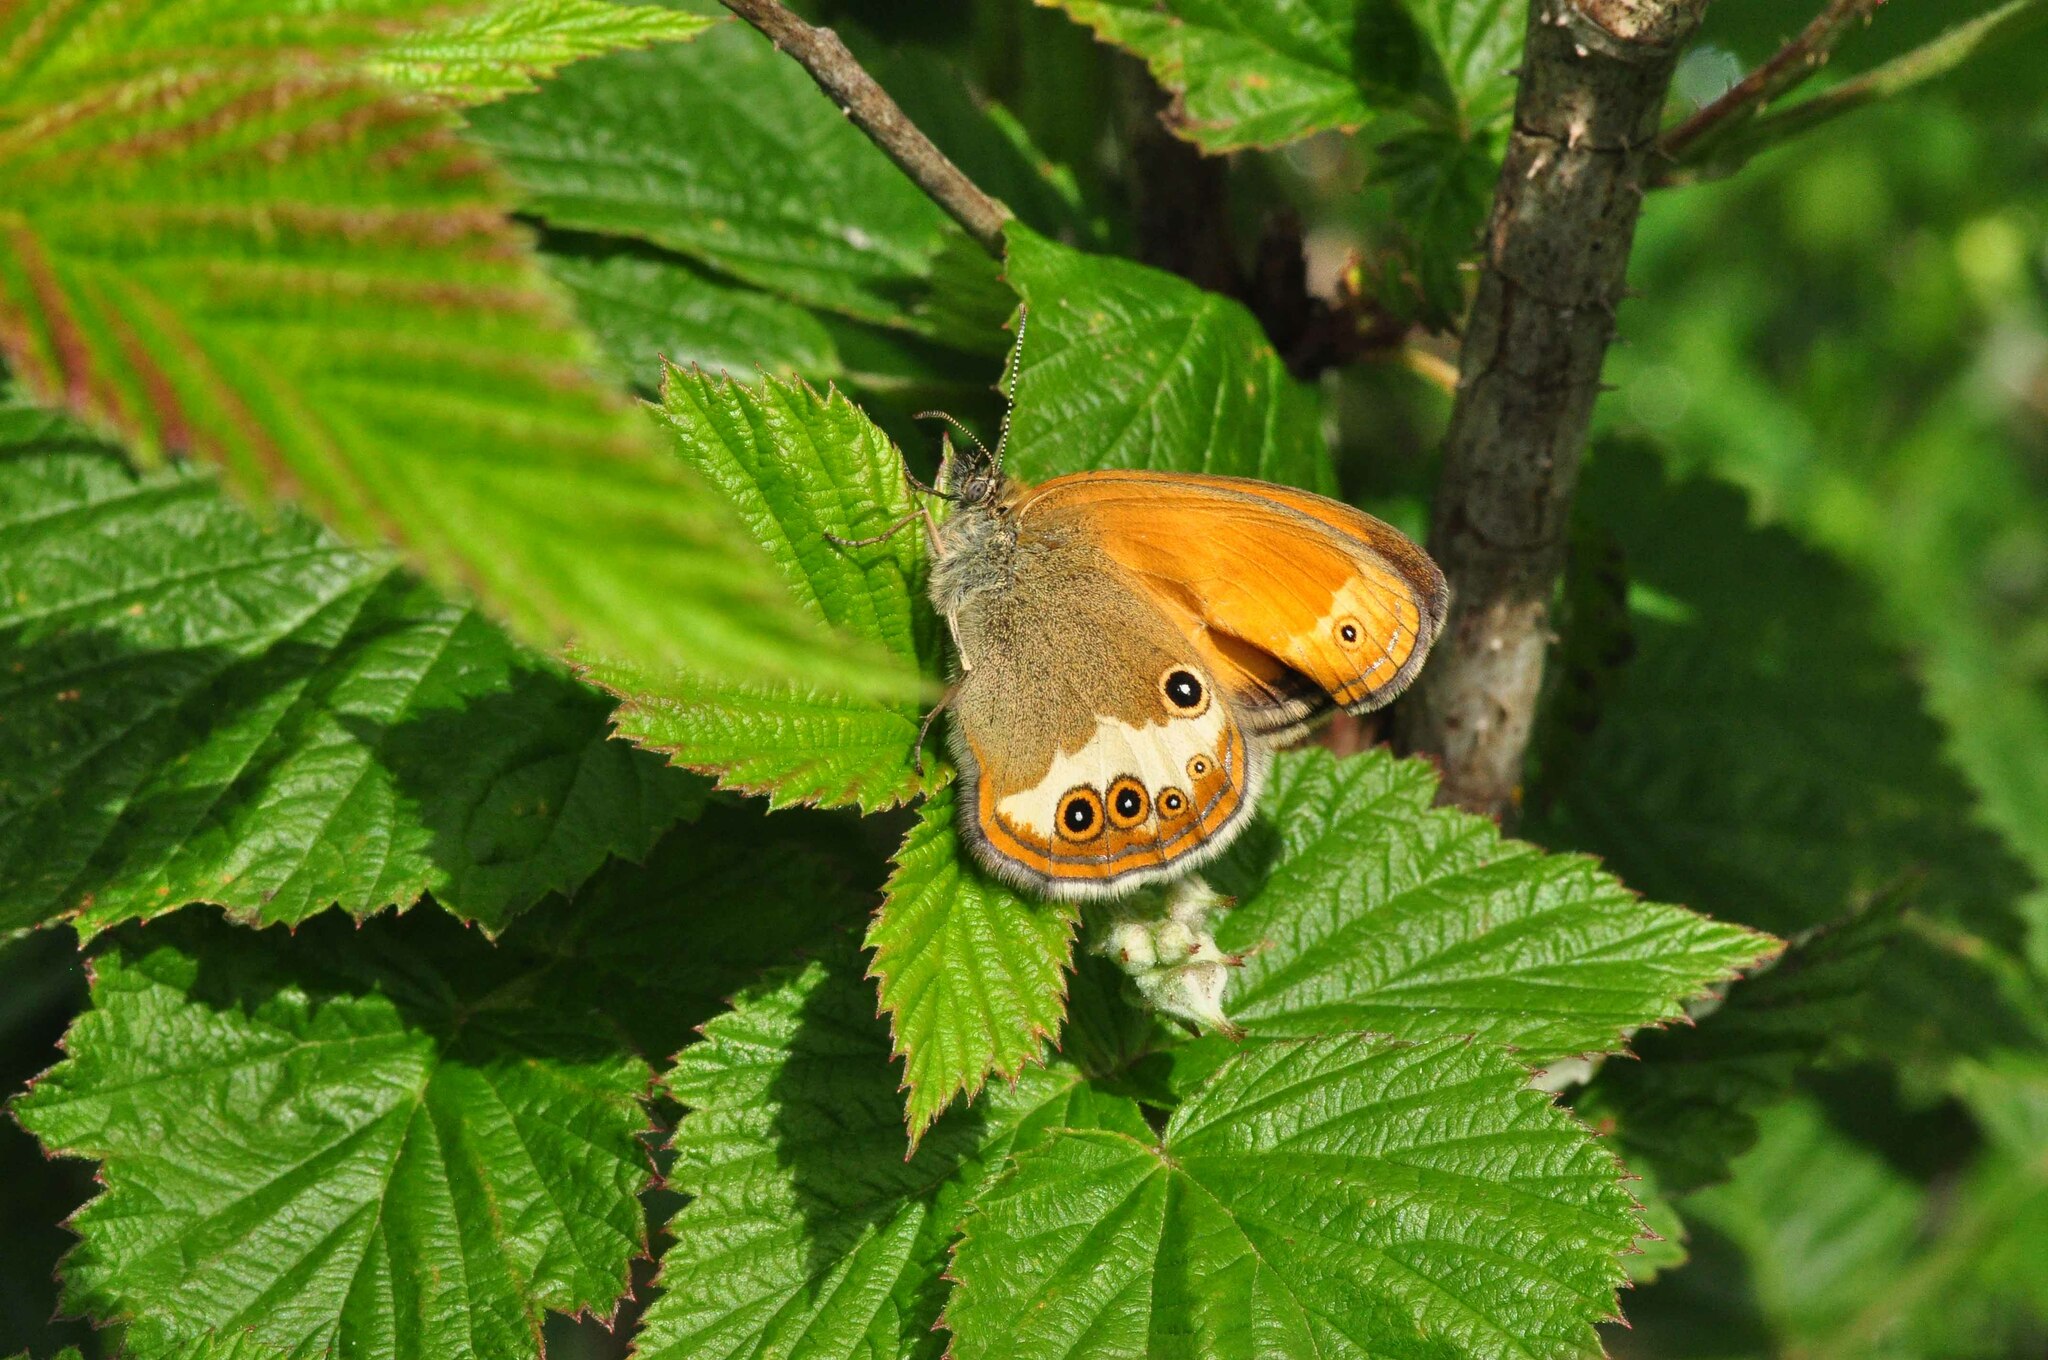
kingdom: Animalia
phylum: Arthropoda
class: Insecta
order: Lepidoptera
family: Nymphalidae
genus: Coenonympha
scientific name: Coenonympha arcania
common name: Pearly heath
